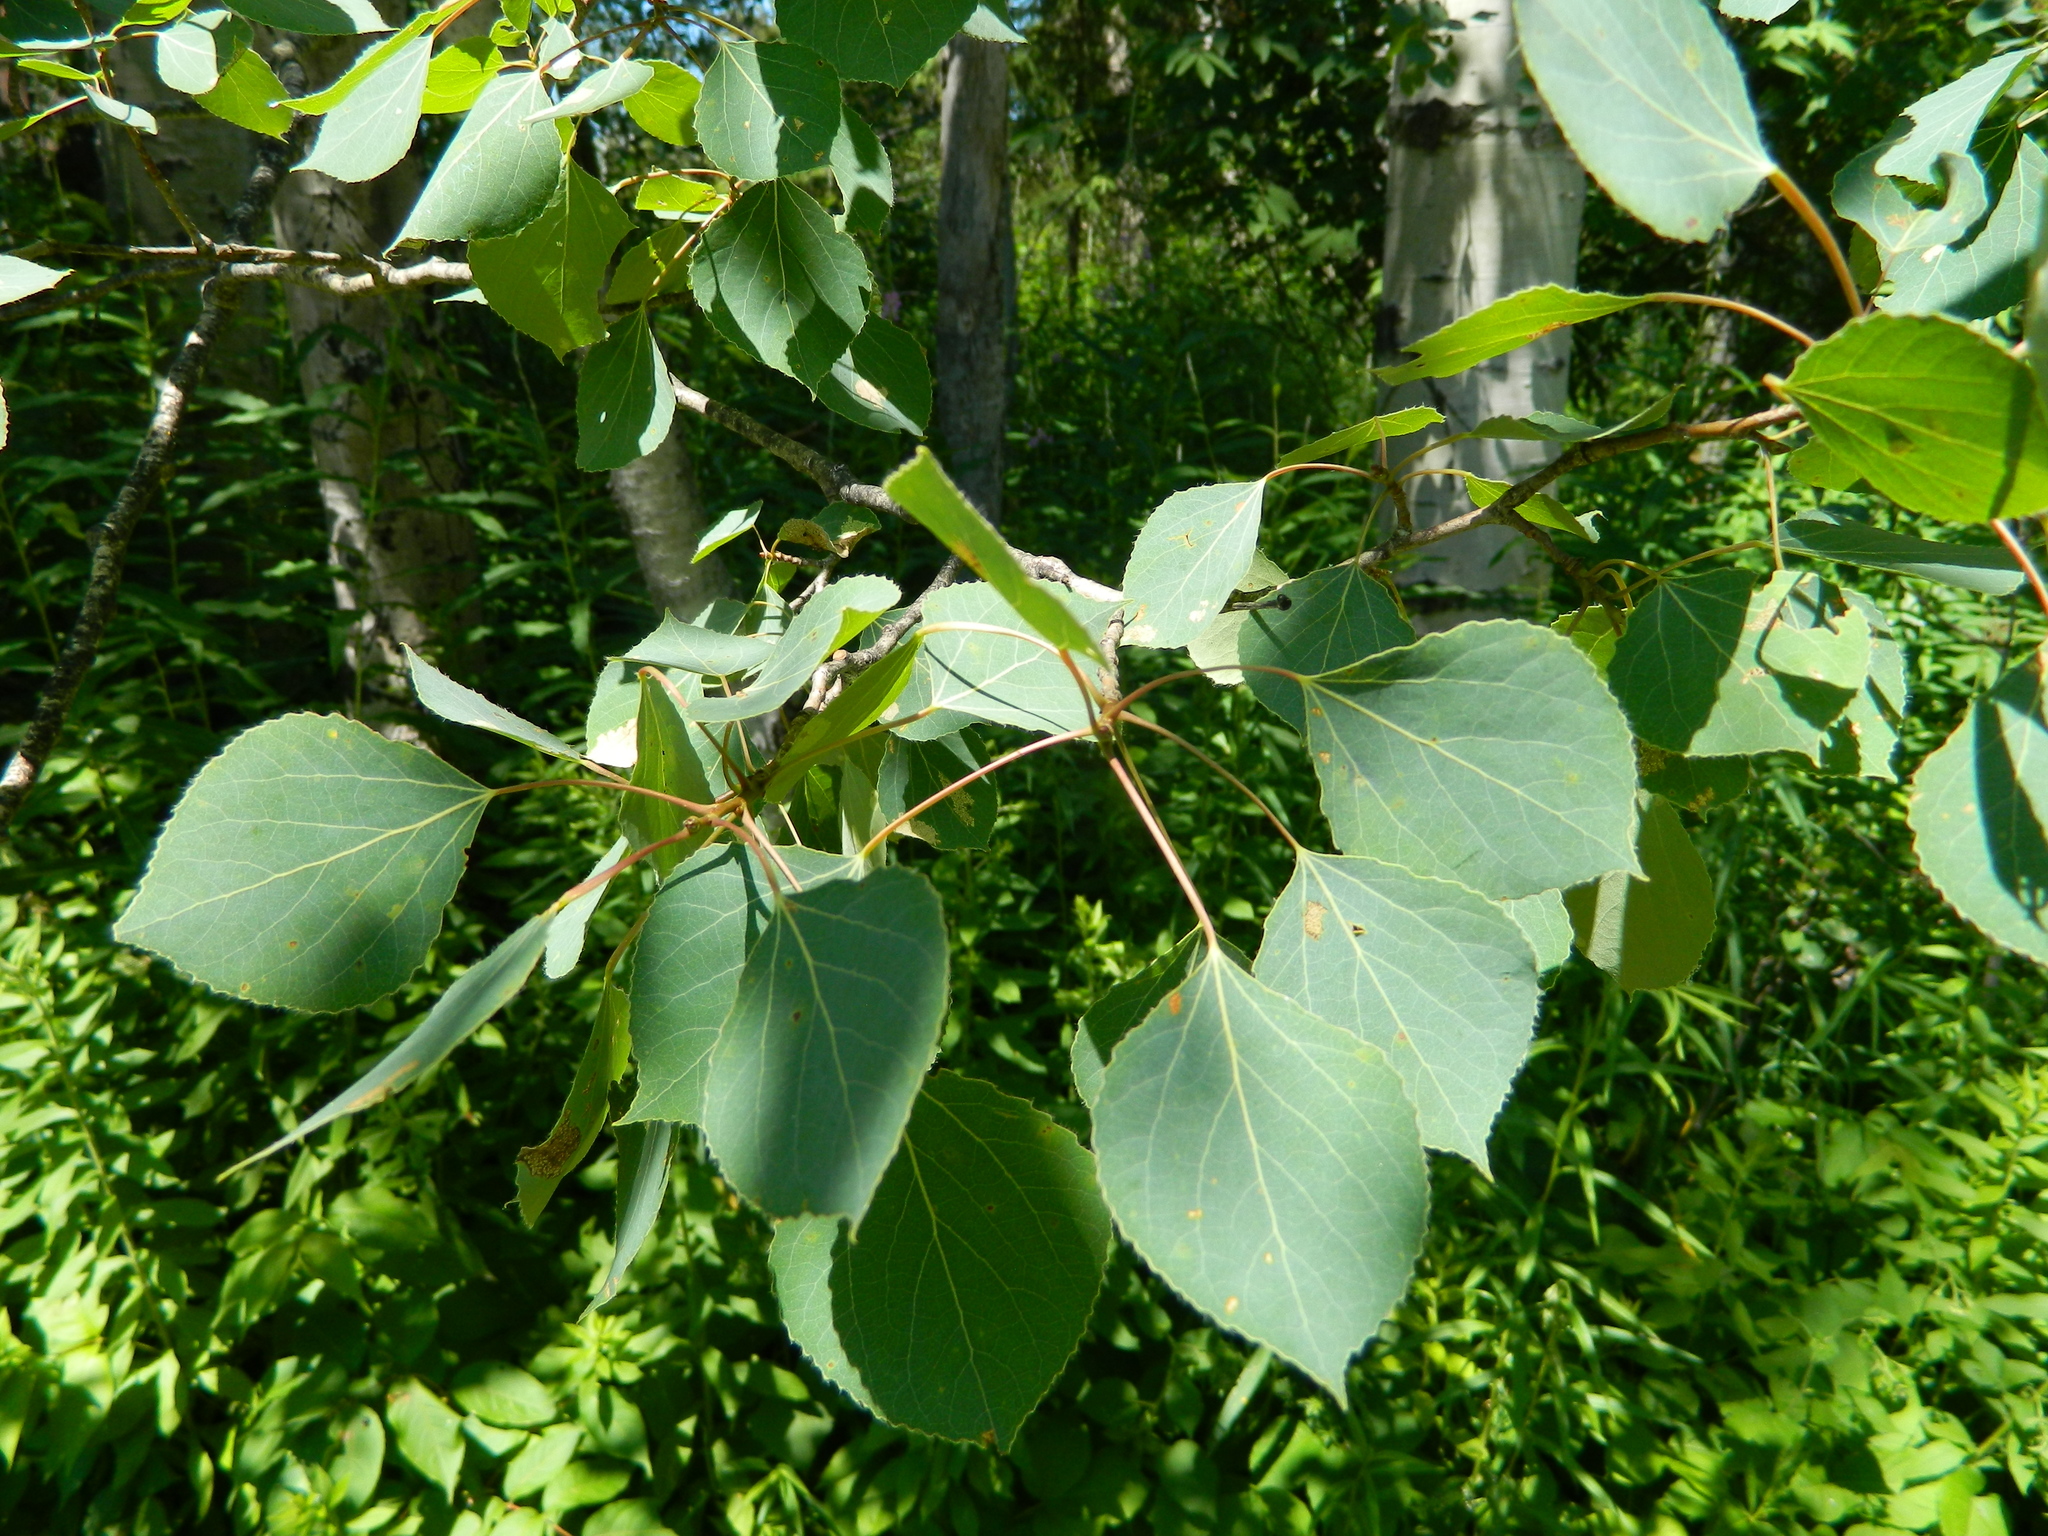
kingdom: Plantae
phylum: Tracheophyta
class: Magnoliopsida
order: Malpighiales
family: Salicaceae
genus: Populus
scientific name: Populus tremuloides
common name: Quaking aspen
